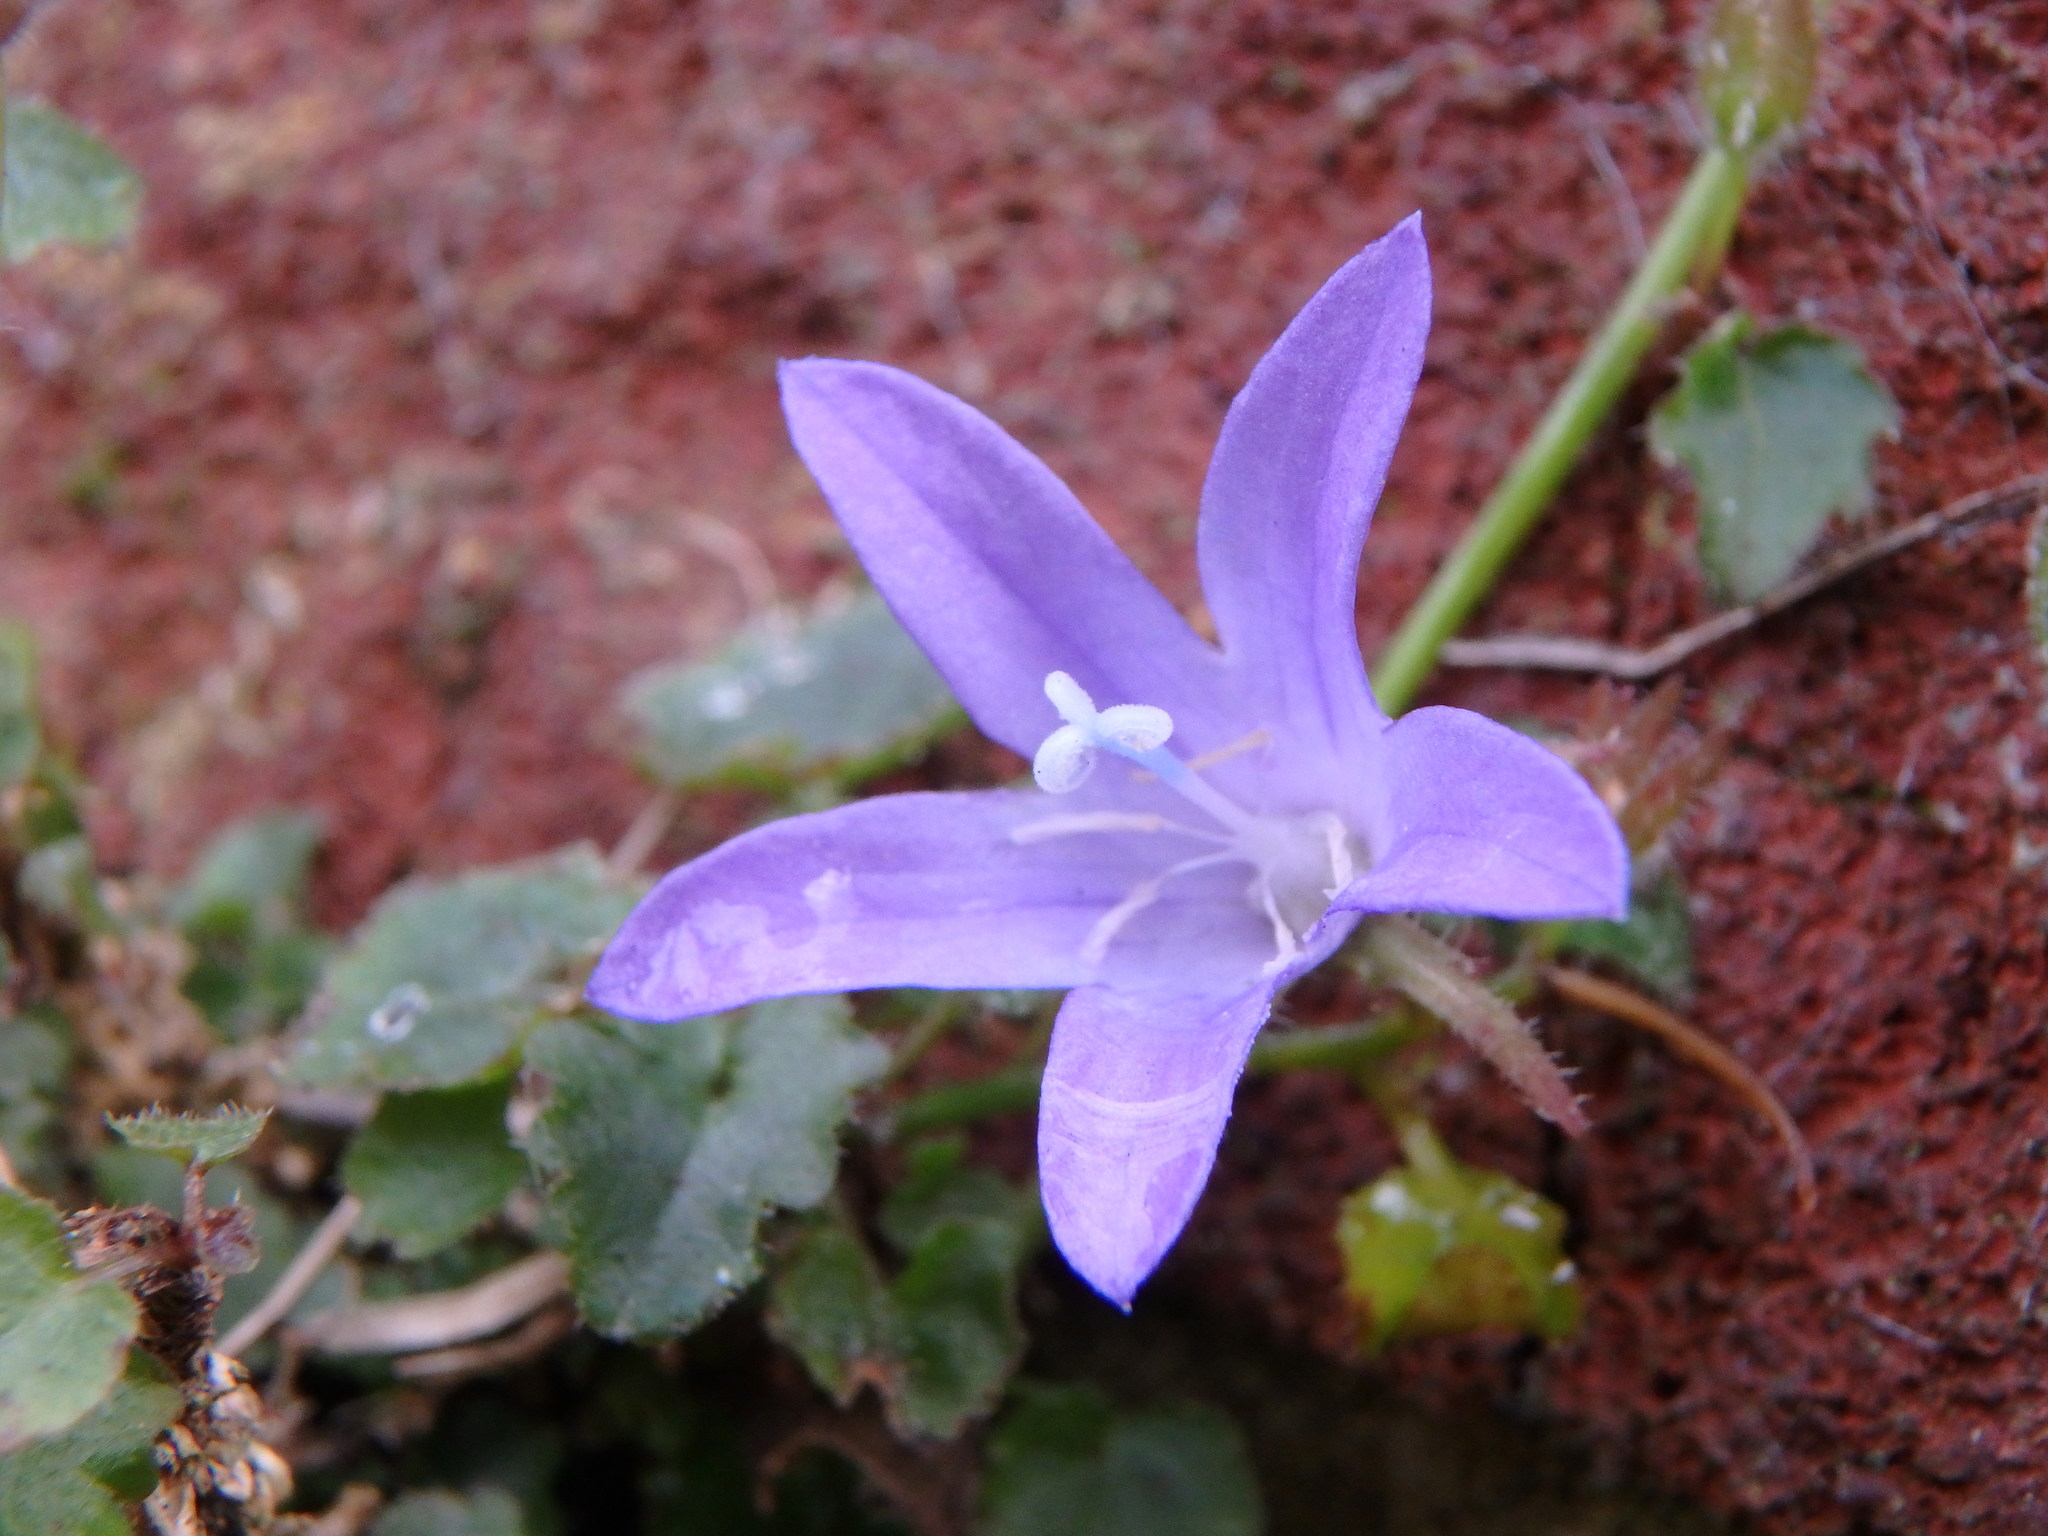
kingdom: Plantae
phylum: Tracheophyta
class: Magnoliopsida
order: Asterales
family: Campanulaceae
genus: Campanula
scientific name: Campanula poscharskyana
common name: Trailing bellflower
